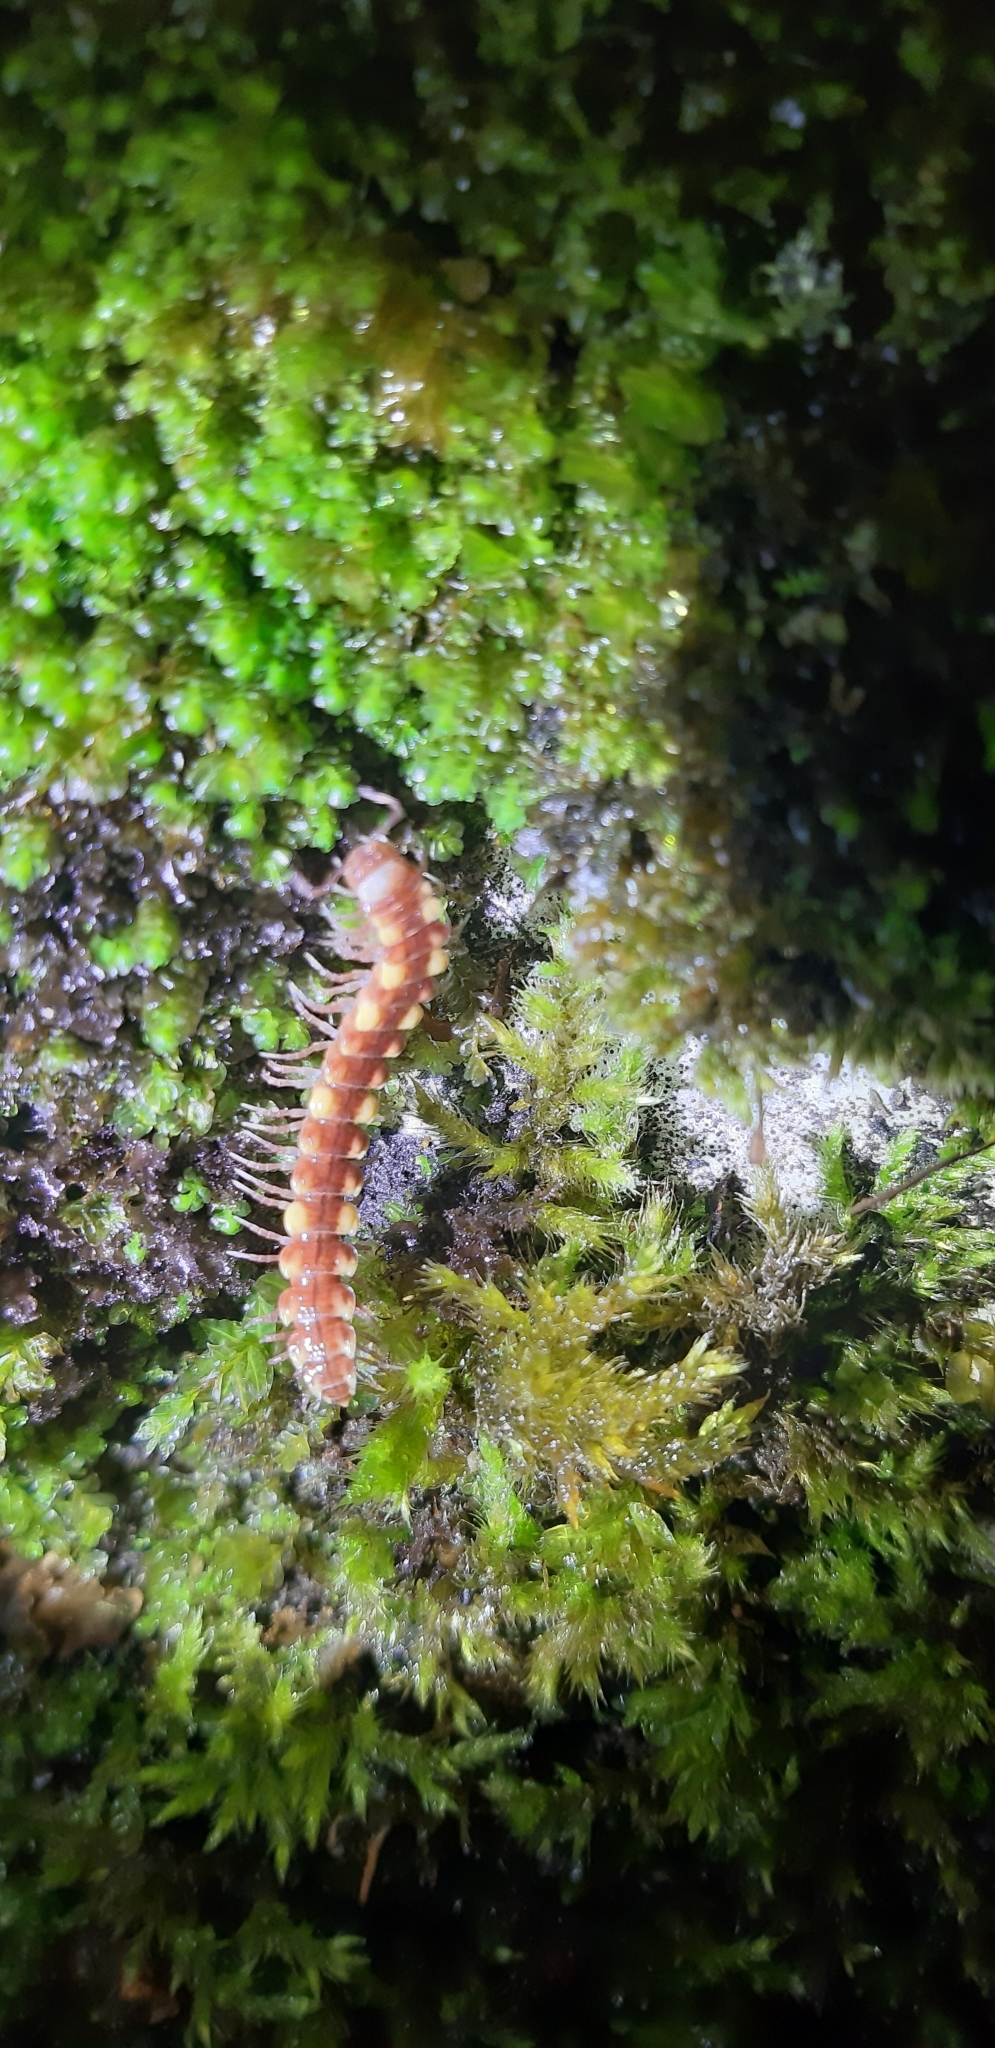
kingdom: Animalia
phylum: Arthropoda
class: Diplopoda
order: Polydesmida
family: Polydesmidae
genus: Polydesmus
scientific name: Polydesmus collaris
